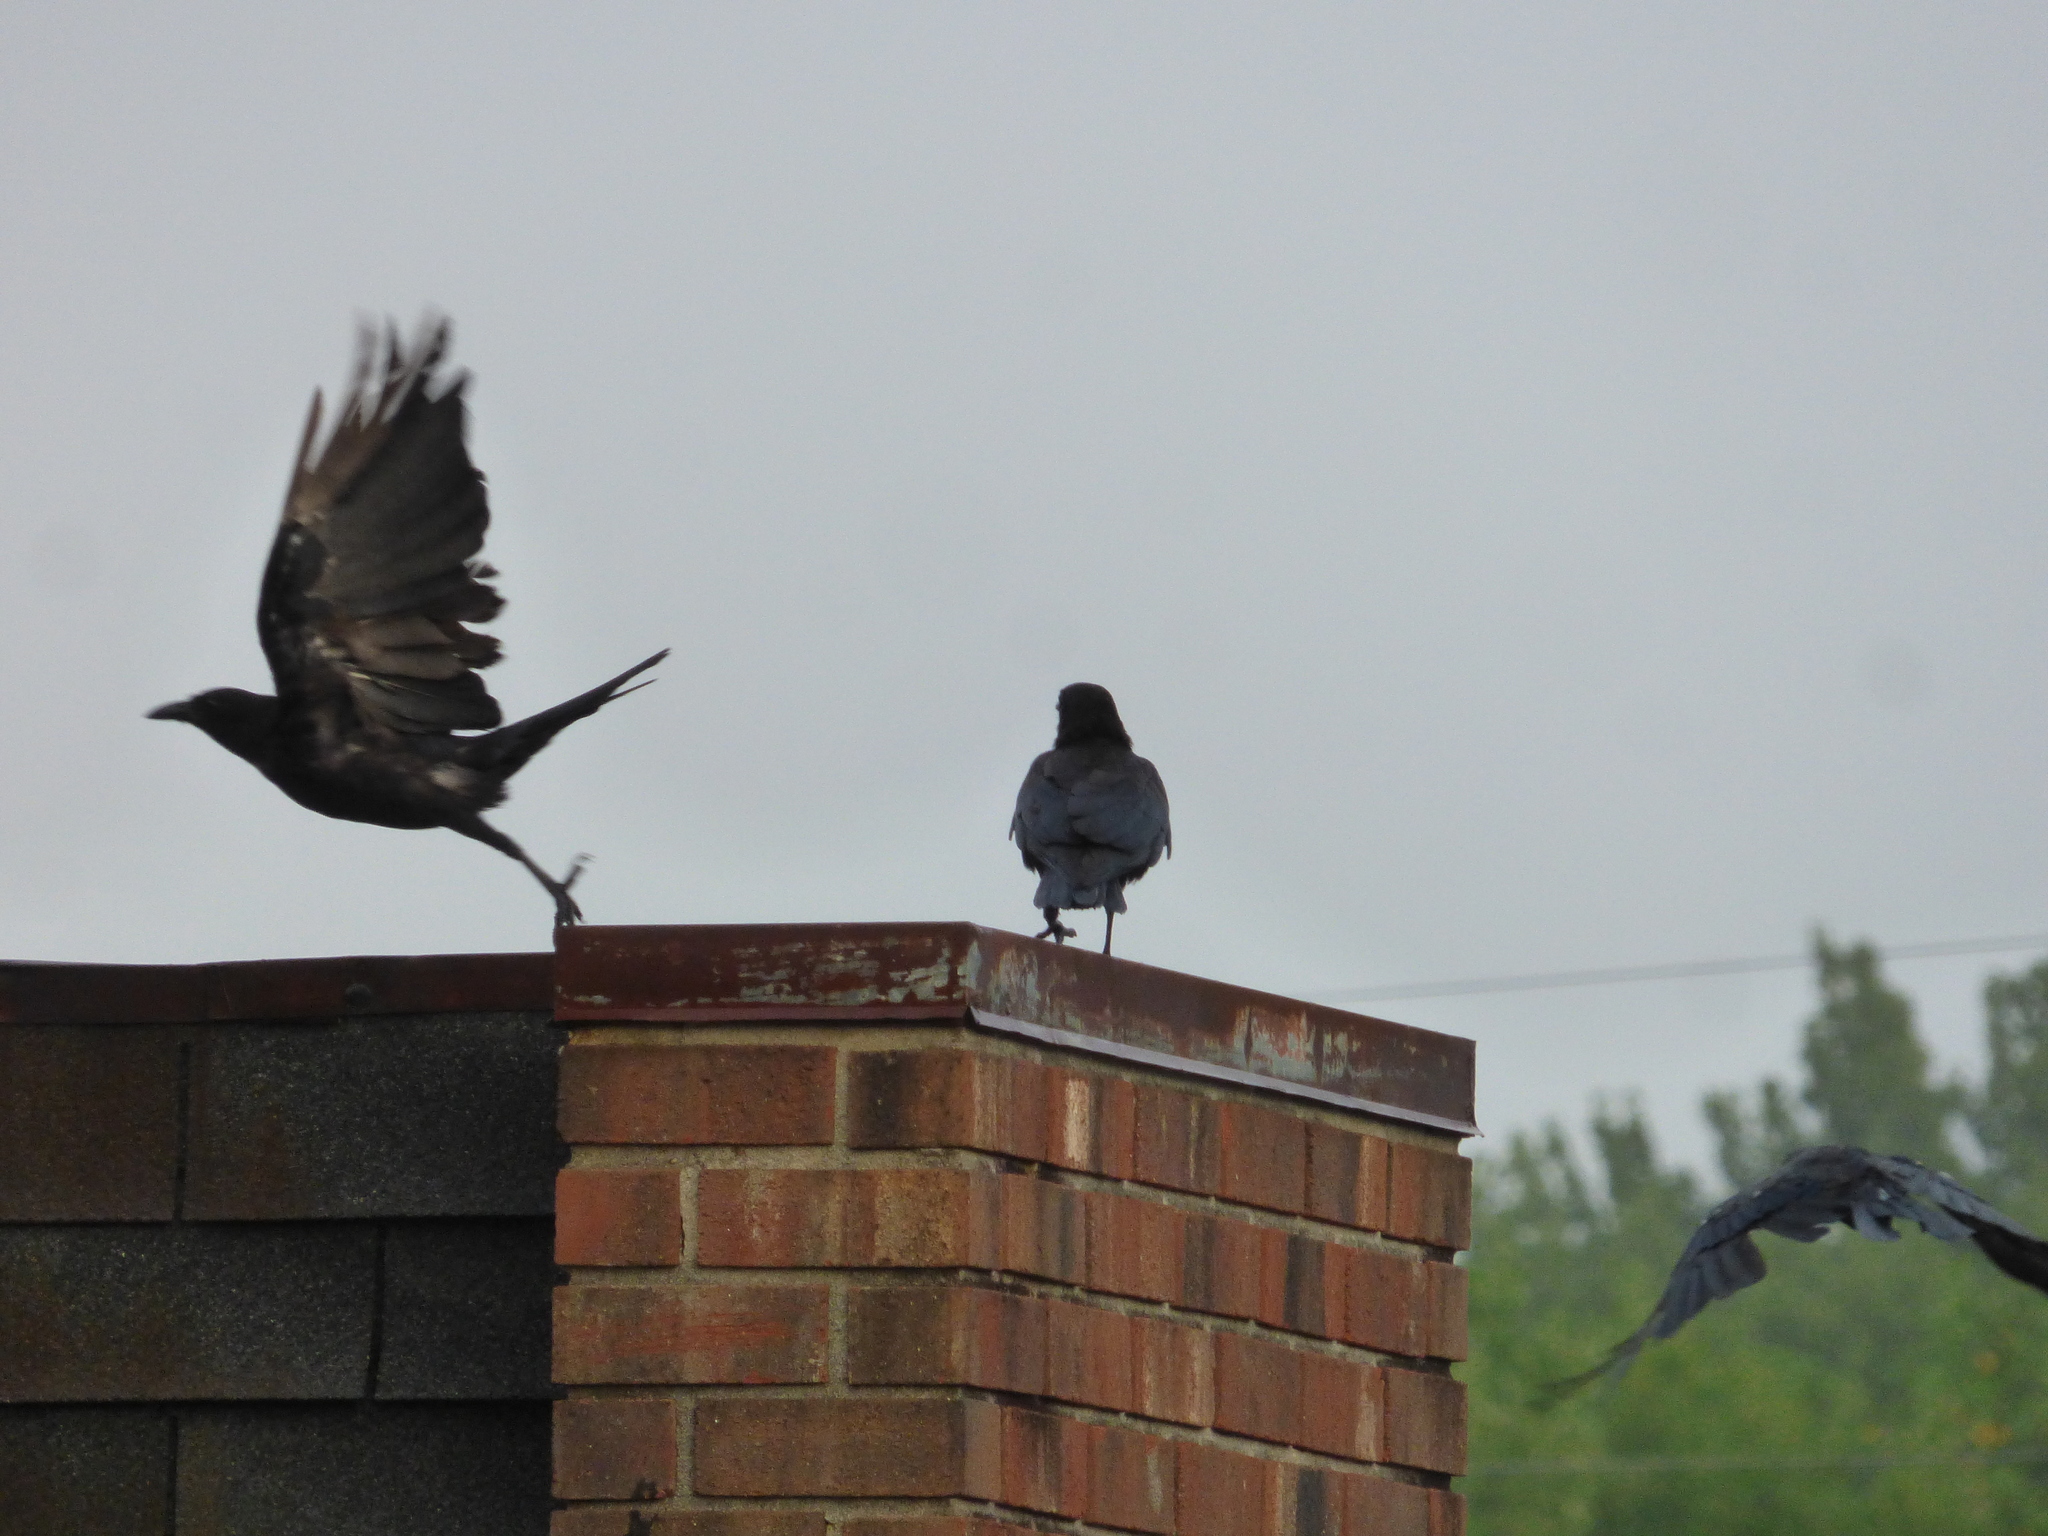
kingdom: Animalia
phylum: Chordata
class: Aves
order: Passeriformes
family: Corvidae
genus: Corvus
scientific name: Corvus ossifragus
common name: Fish crow
